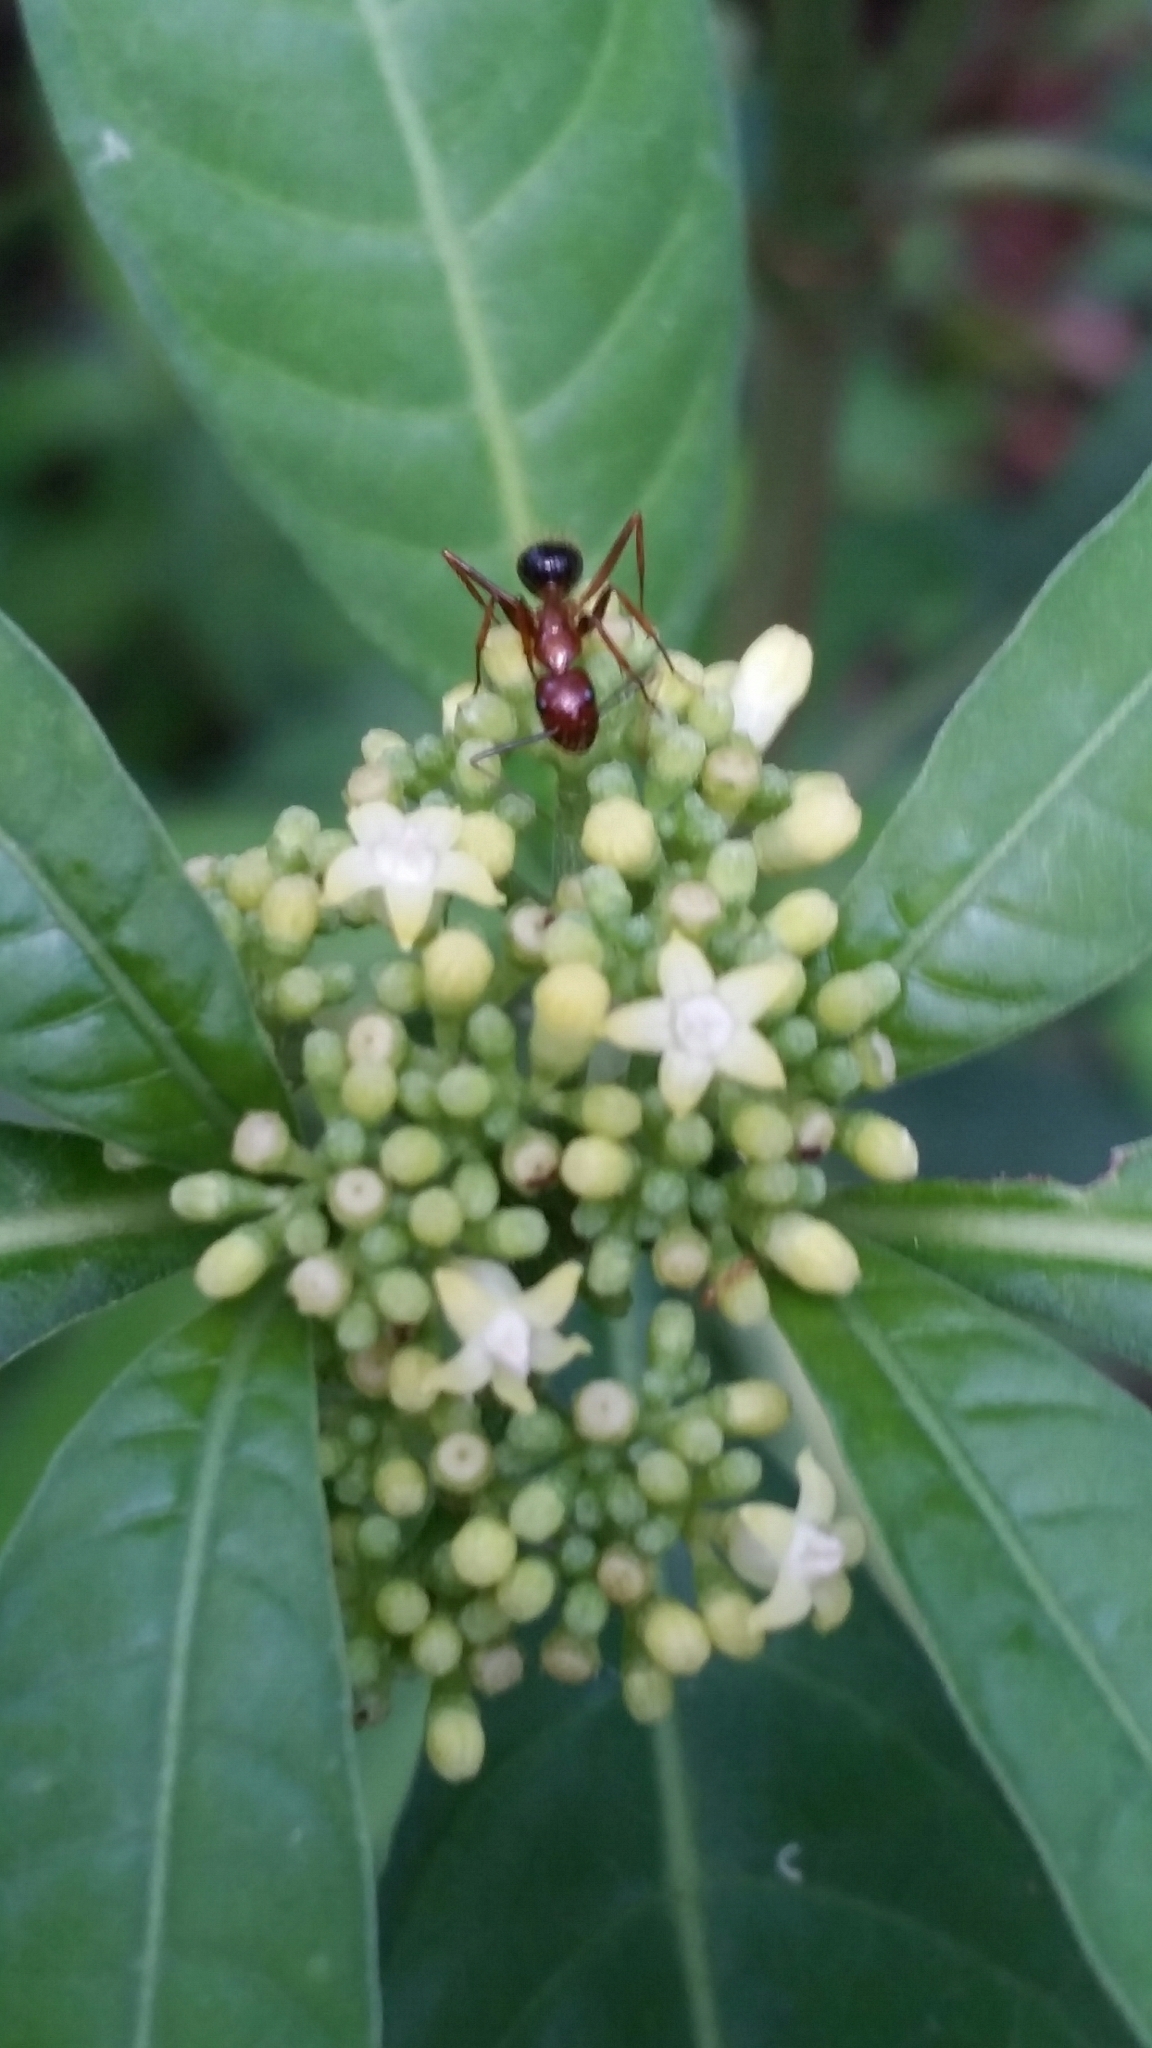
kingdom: Plantae
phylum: Tracheophyta
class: Magnoliopsida
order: Gentianales
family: Rubiaceae
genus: Psychotria
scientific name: Psychotria tenuifolia
